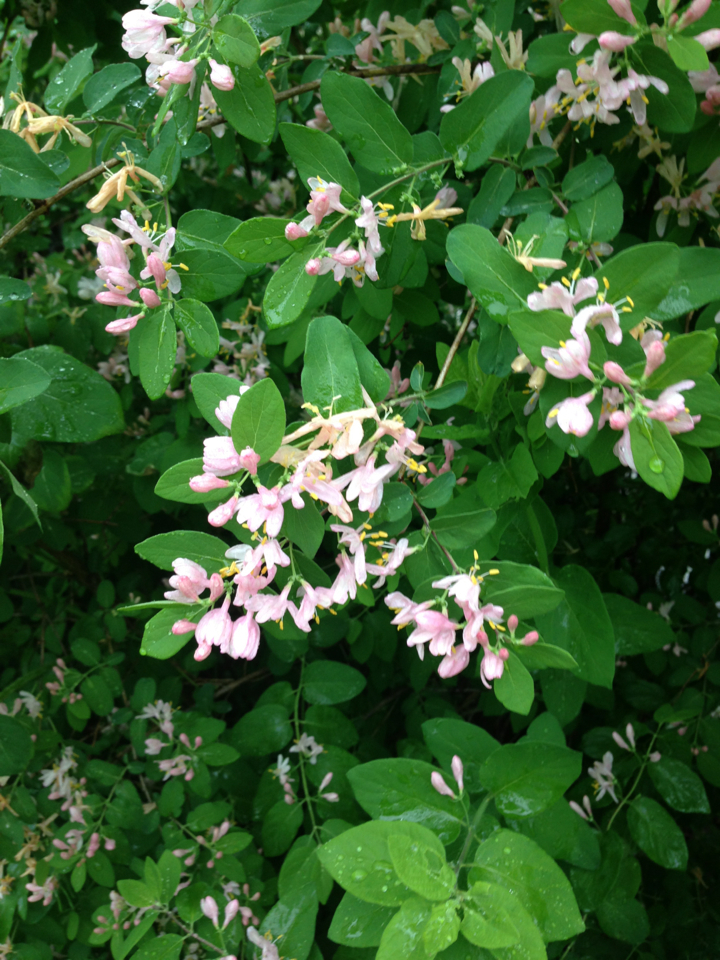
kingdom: Plantae
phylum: Tracheophyta
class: Magnoliopsida
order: Dipsacales
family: Caprifoliaceae
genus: Lonicera
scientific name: Lonicera tatarica
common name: Tatarian honeysuckle
